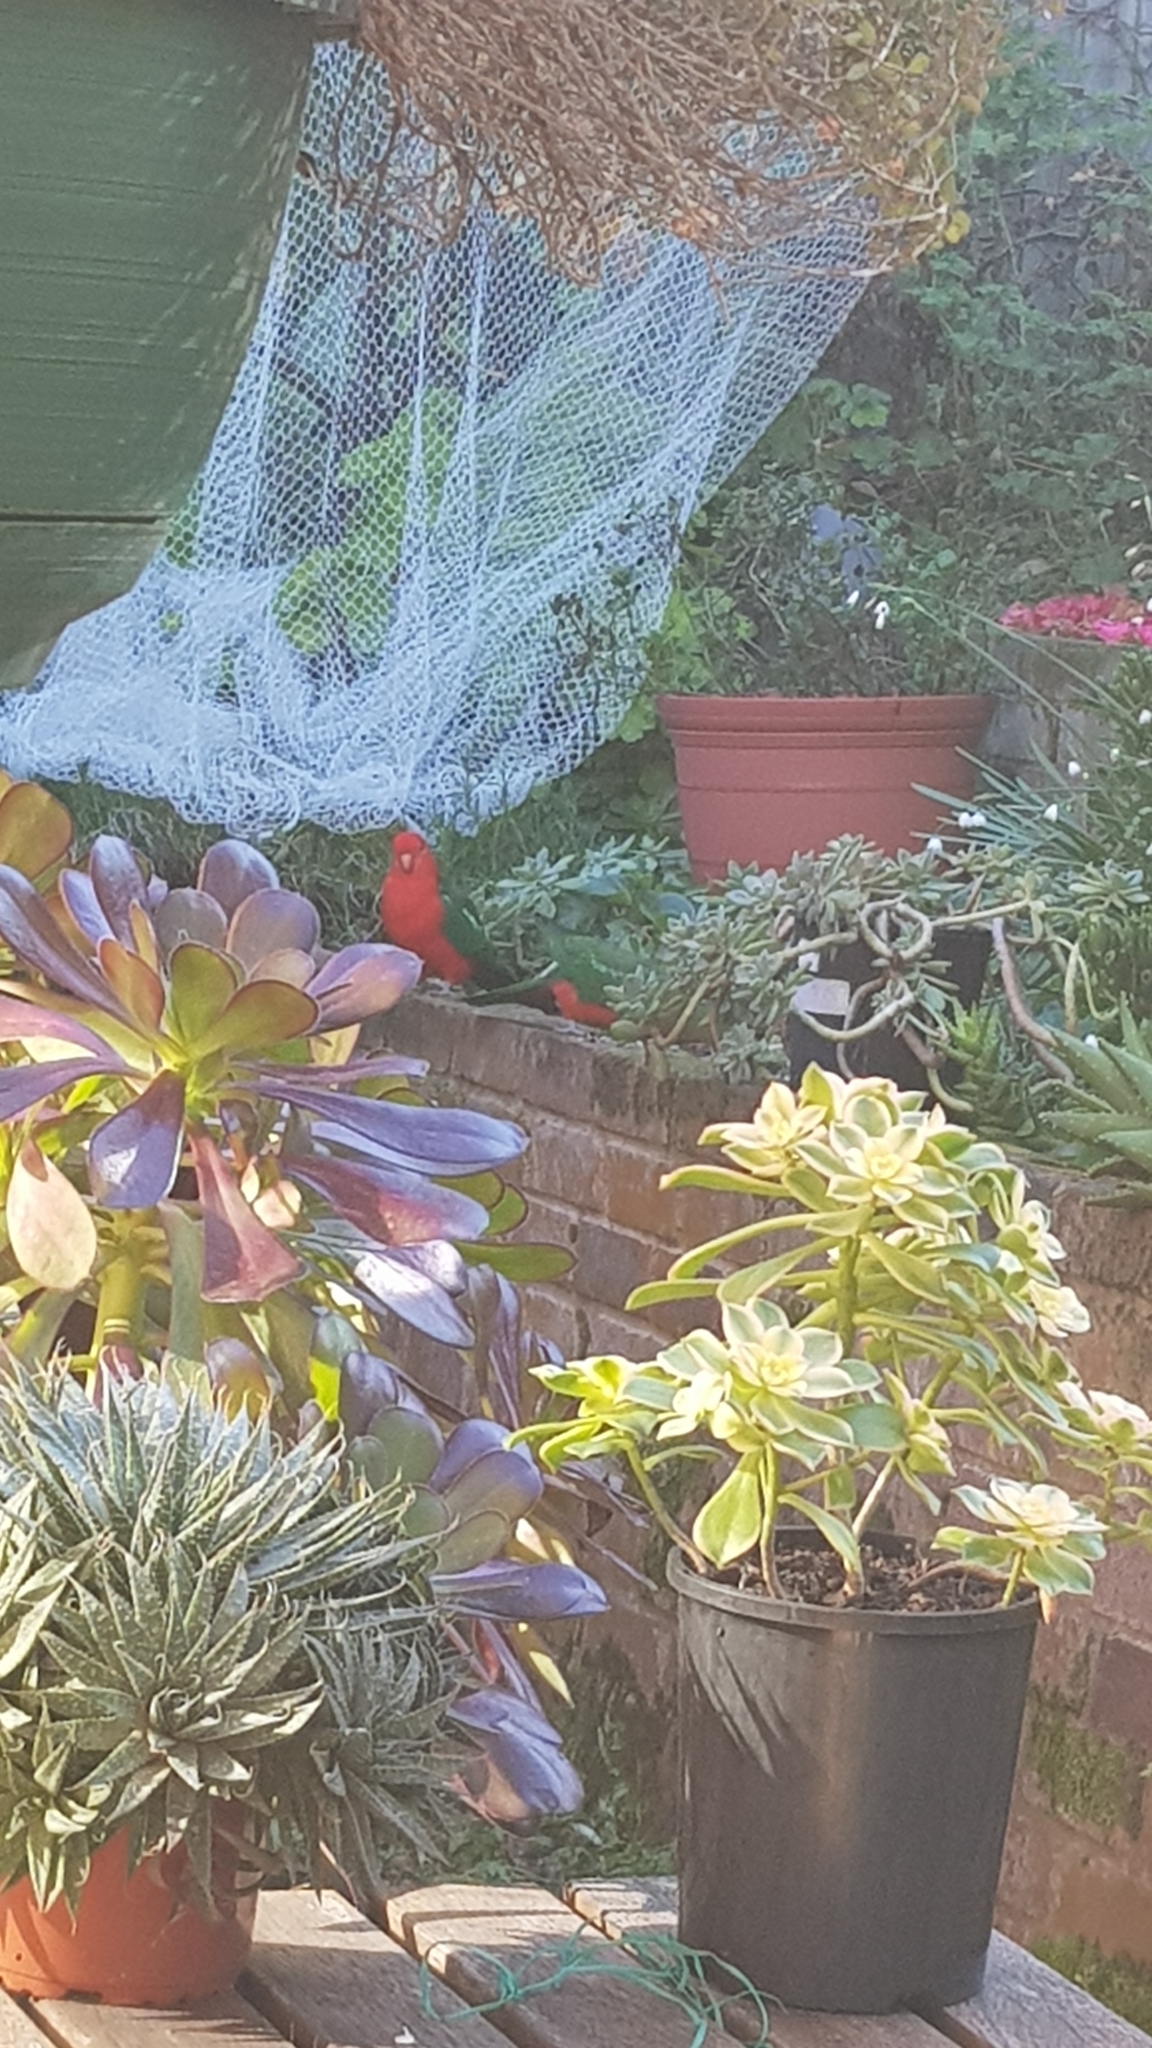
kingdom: Animalia
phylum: Chordata
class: Aves
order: Psittaciformes
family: Psittacidae
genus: Alisterus
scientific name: Alisterus scapularis
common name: Australian king parrot
